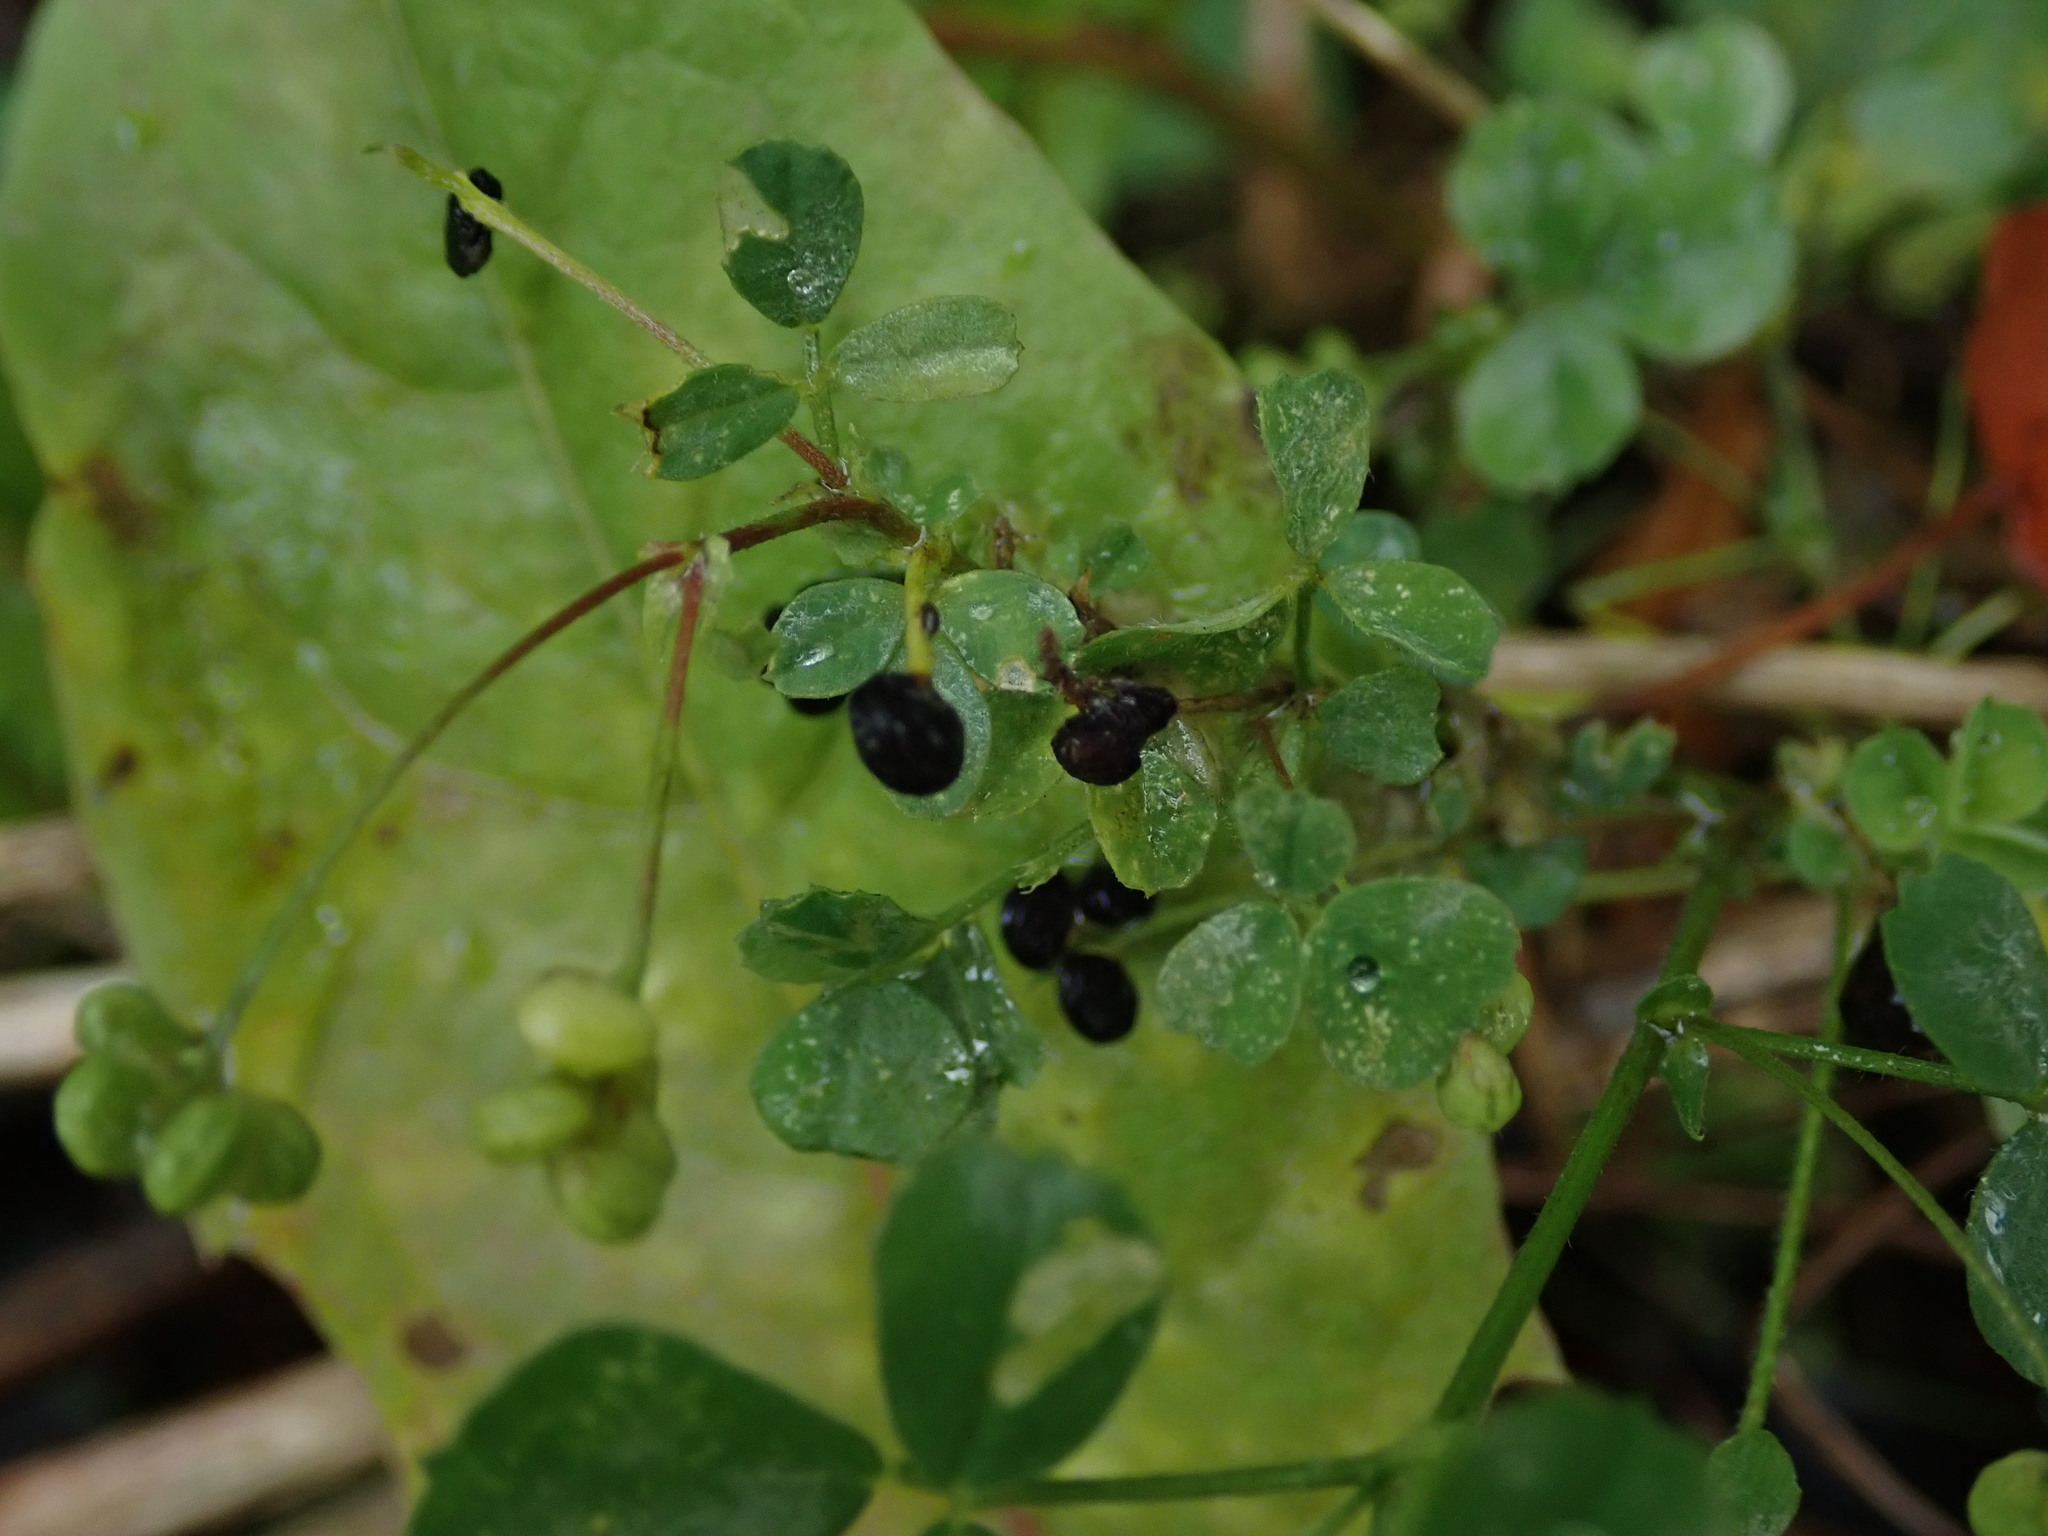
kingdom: Plantae
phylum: Tracheophyta
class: Magnoliopsida
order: Fabales
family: Fabaceae
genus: Medicago
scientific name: Medicago lupulina
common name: Black medick
